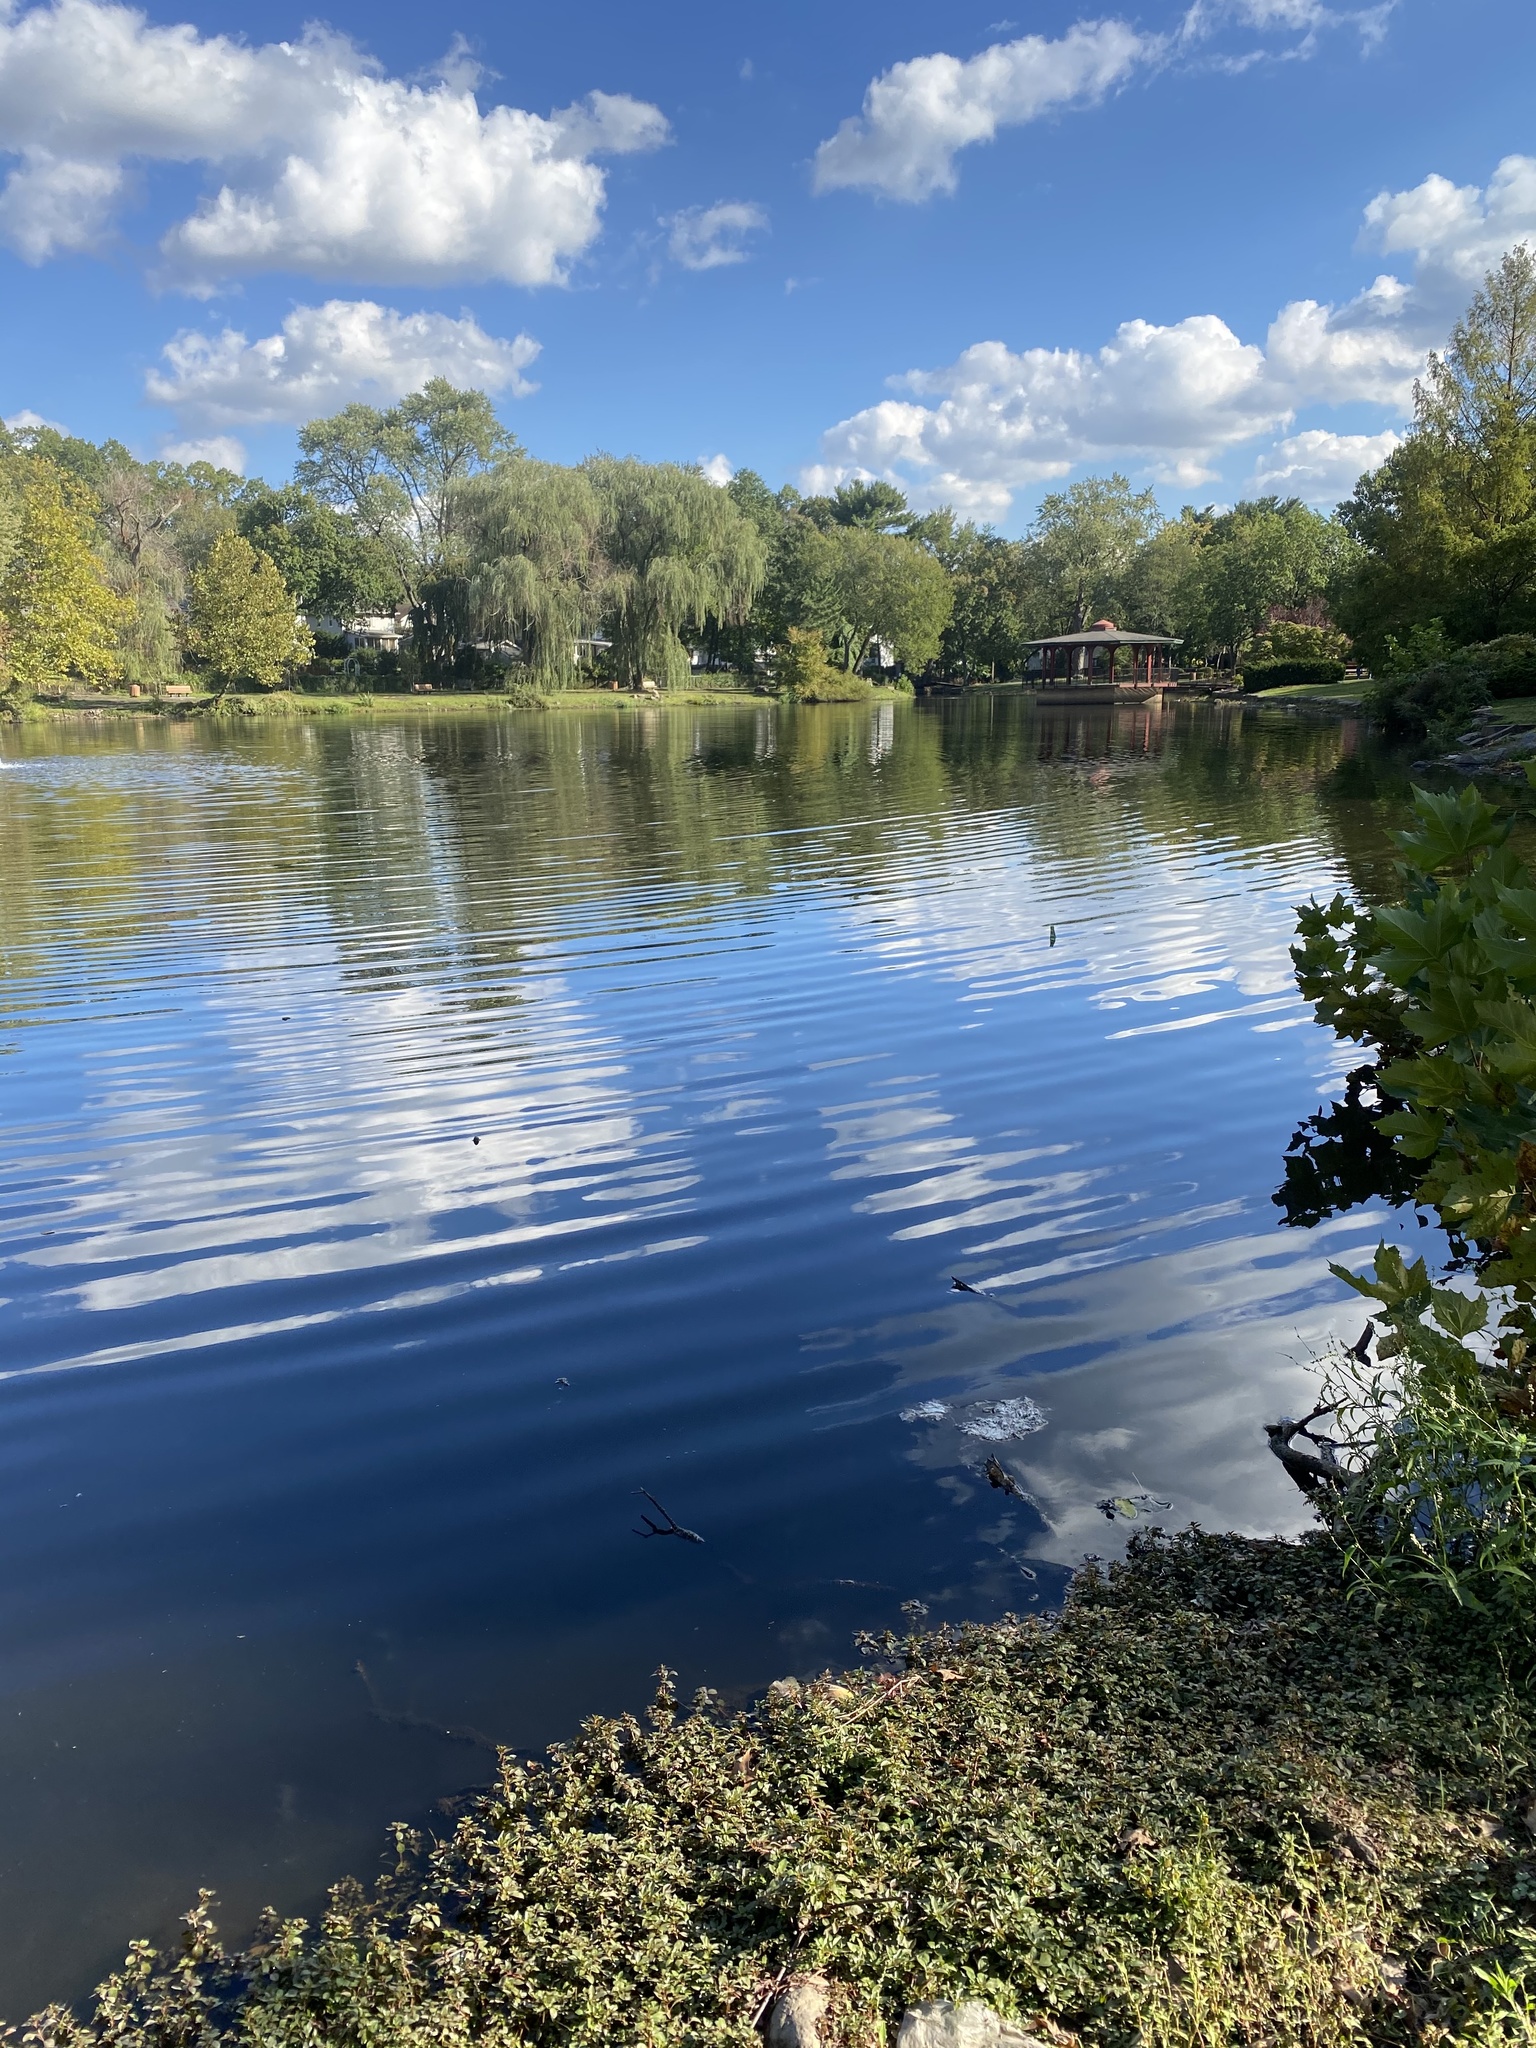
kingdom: Plantae
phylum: Tracheophyta
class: Magnoliopsida
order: Lamiales
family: Mazaceae
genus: Mazus
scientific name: Mazus pumilus
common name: Japanese mazus
